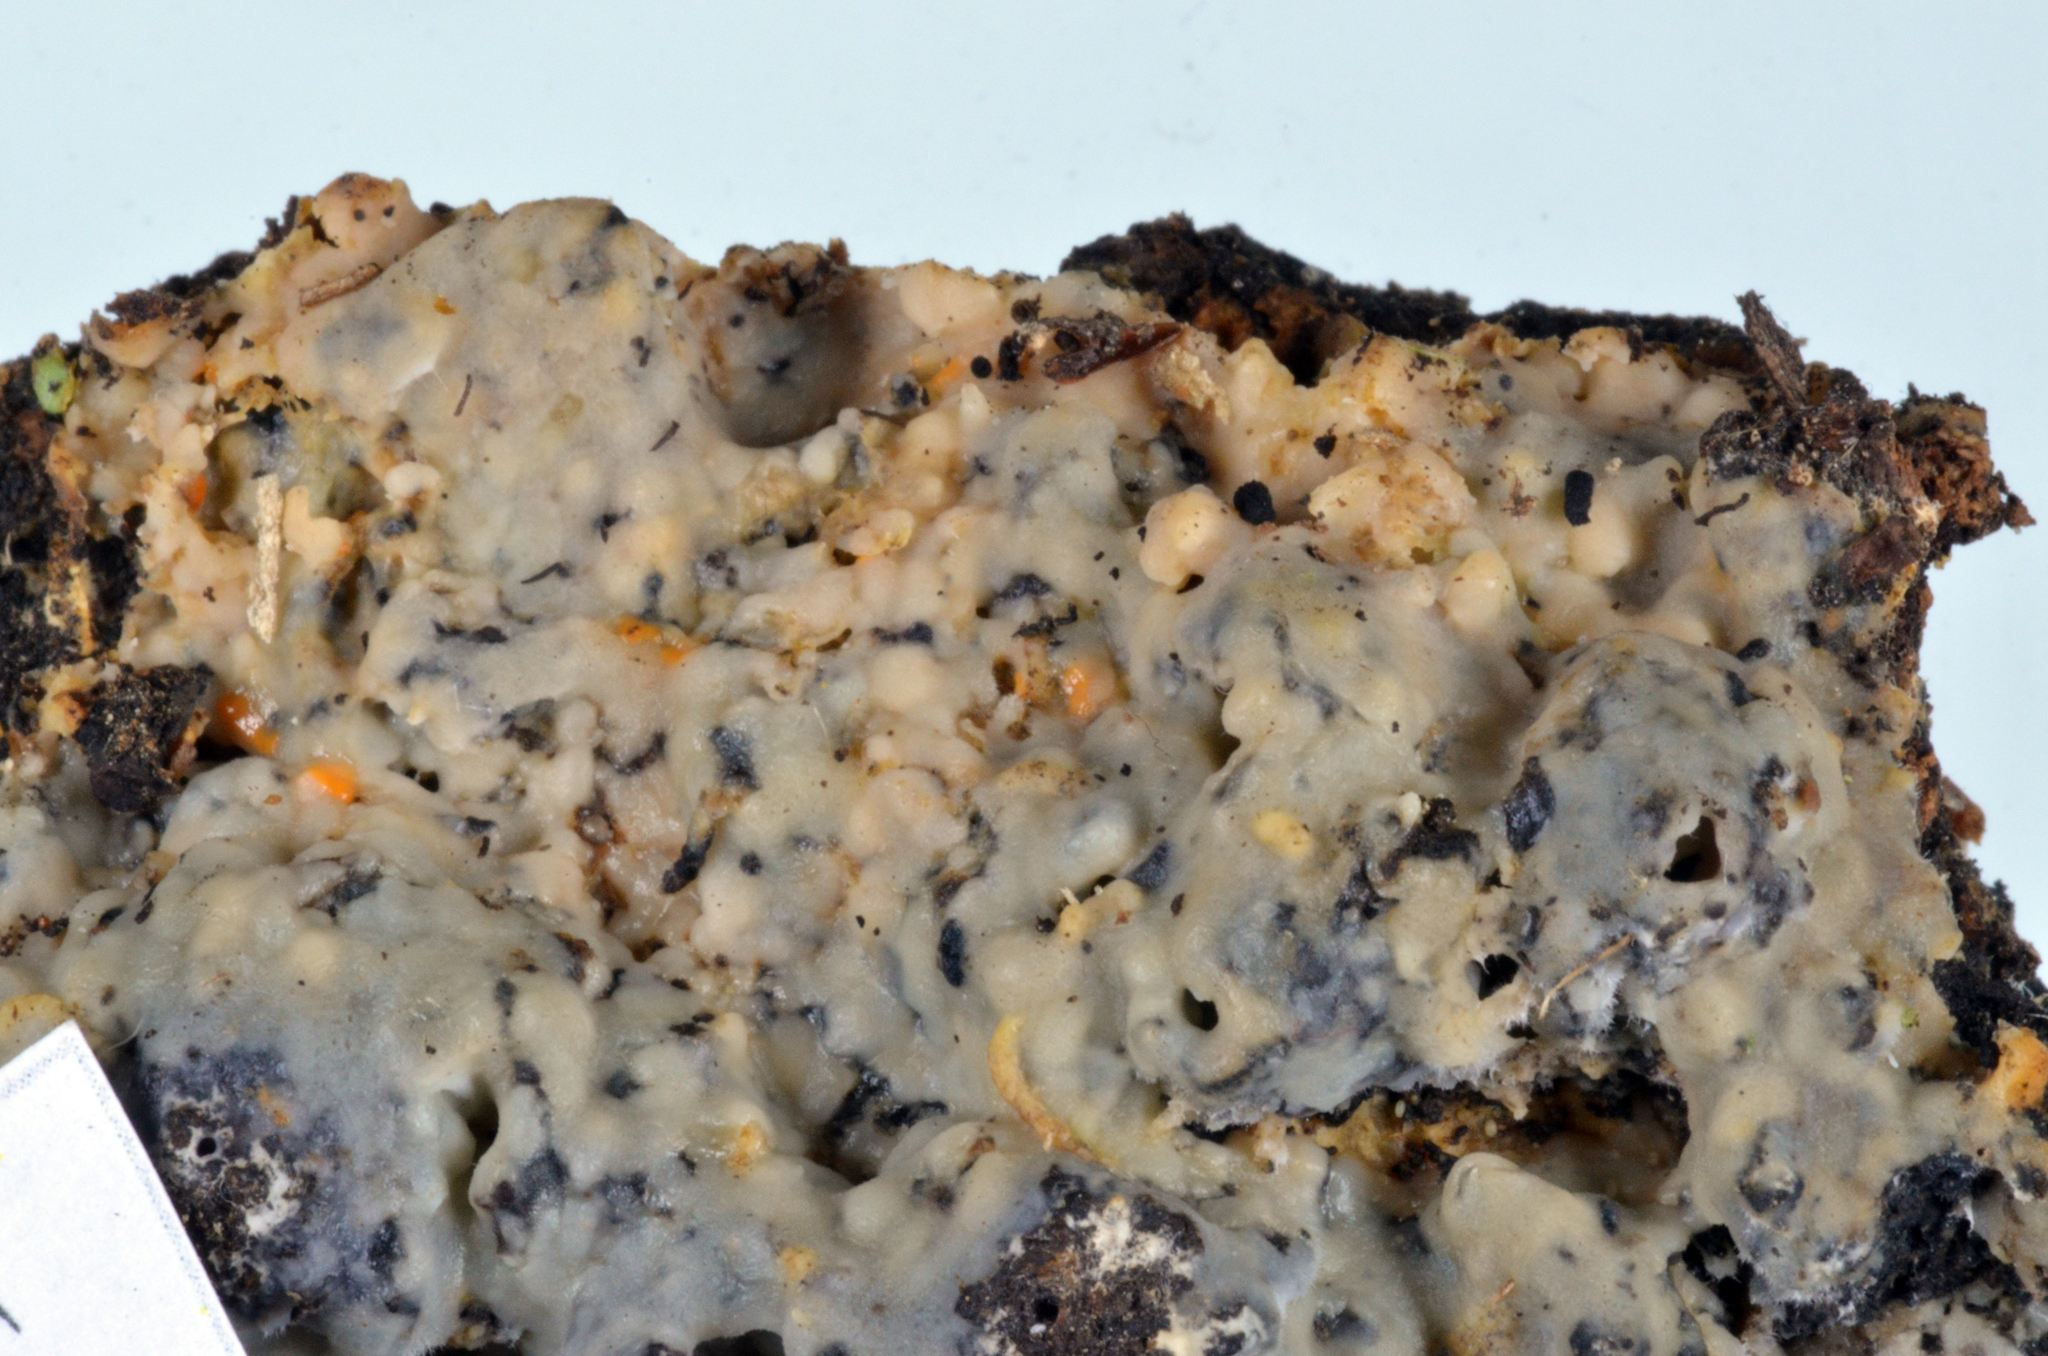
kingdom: Fungi
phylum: Basidiomycota
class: Agaricomycetes
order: Sebacinales
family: Sebacinaceae
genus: Sebacina
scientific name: Sebacina epigaea
